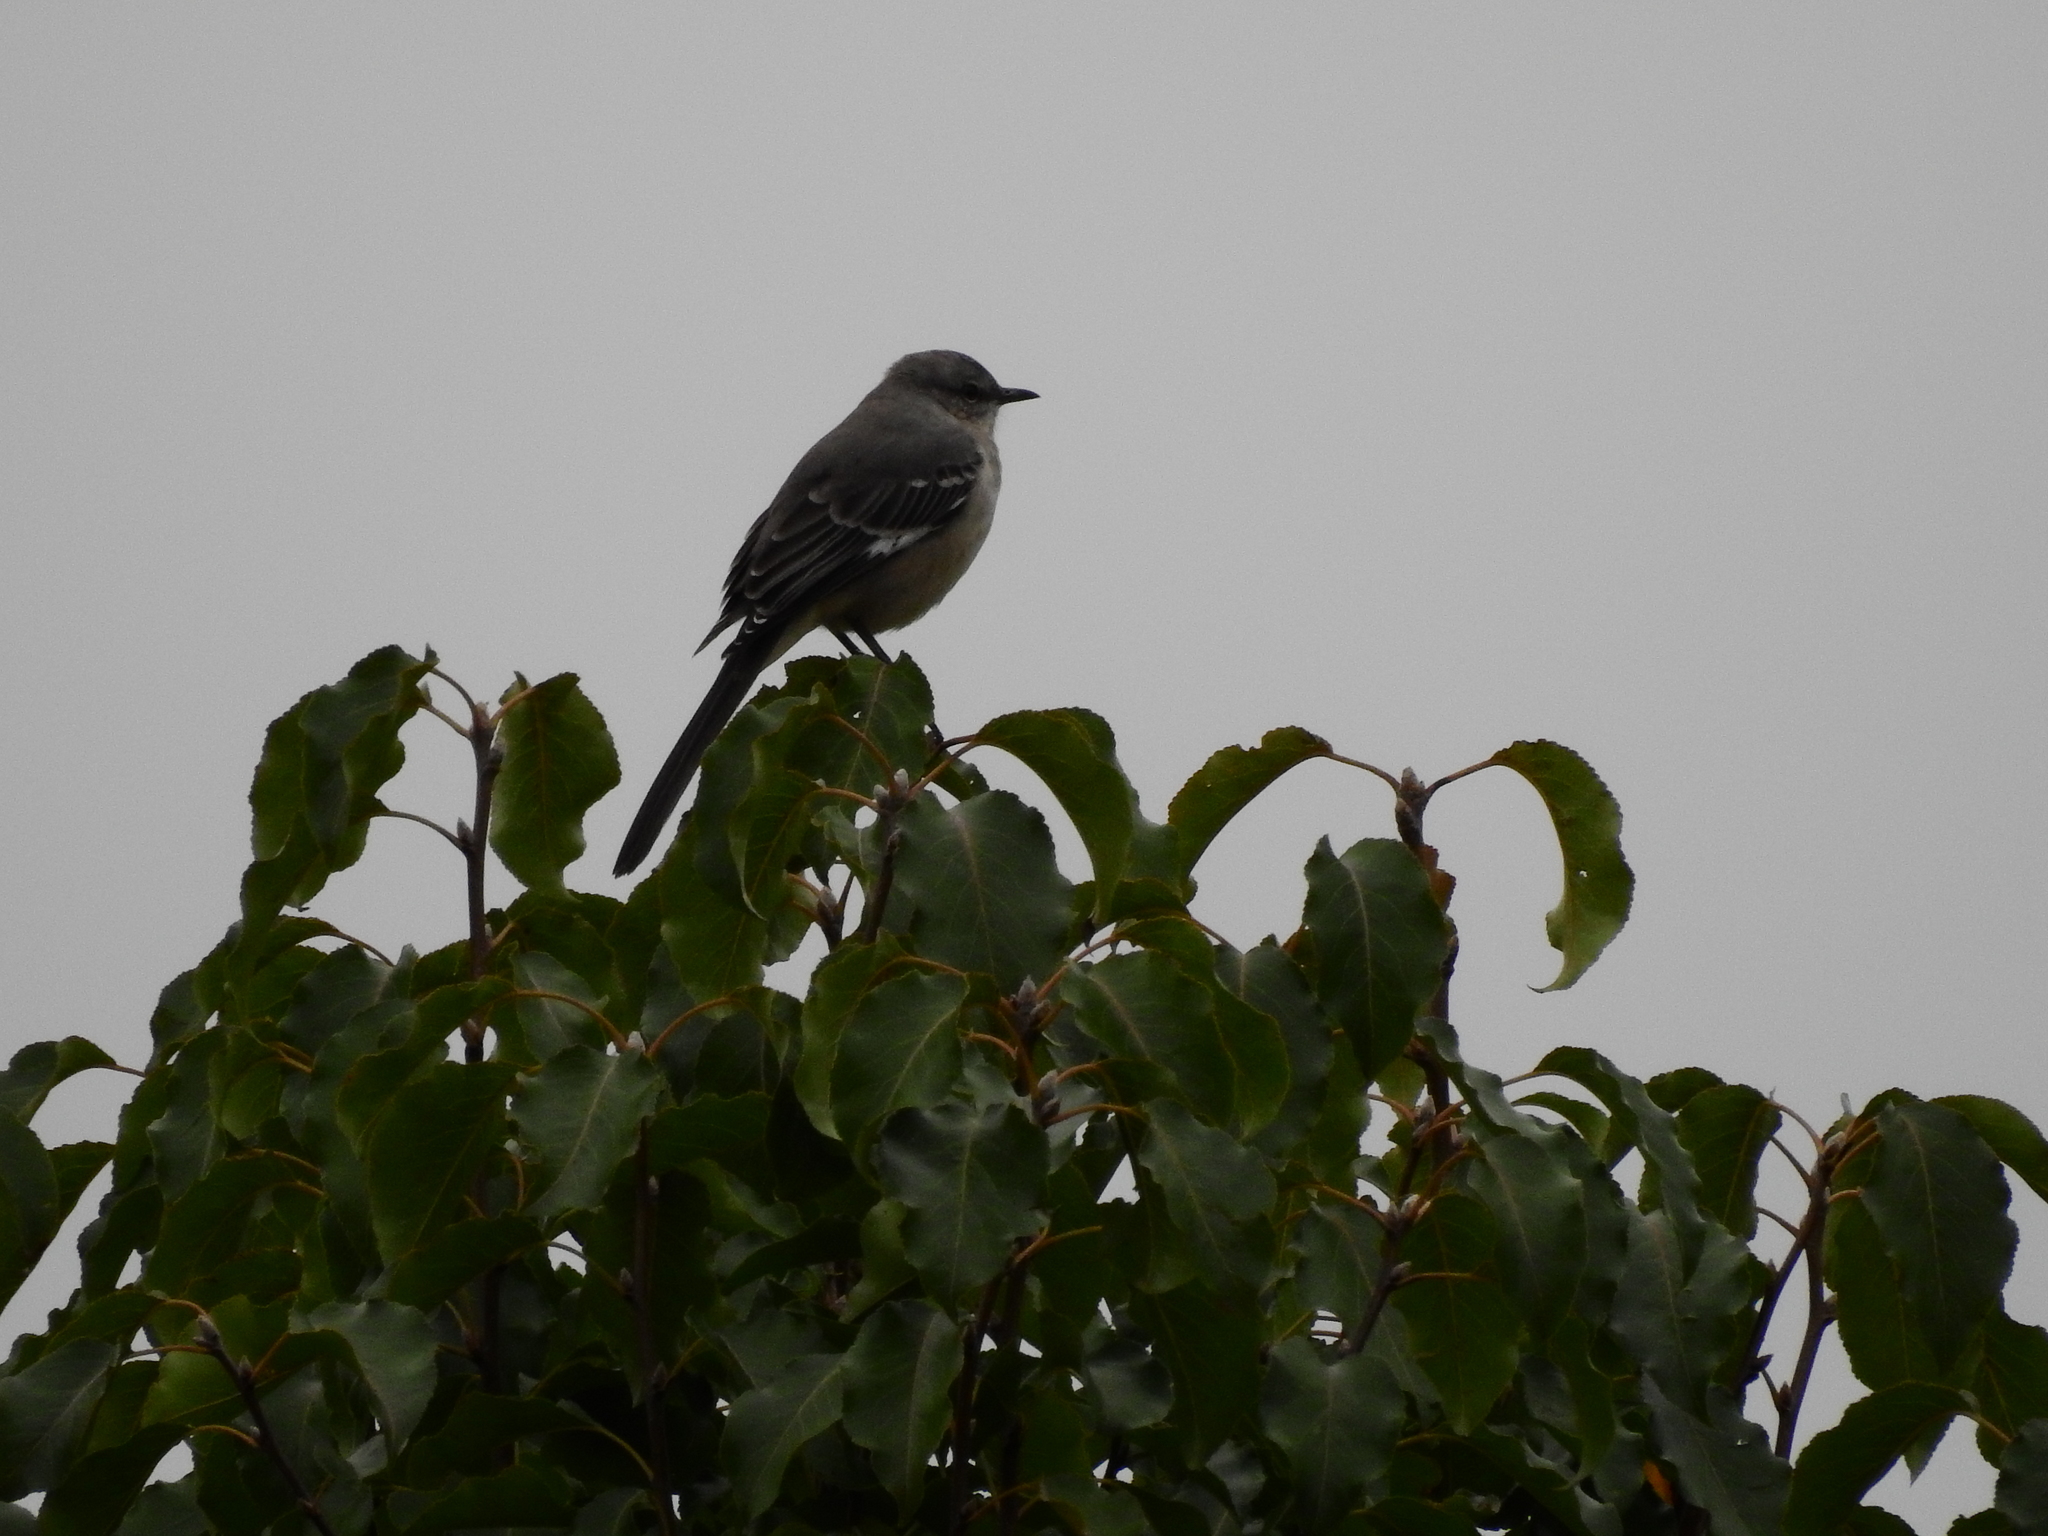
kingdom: Animalia
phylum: Chordata
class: Aves
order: Passeriformes
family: Mimidae
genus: Mimus
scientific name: Mimus polyglottos
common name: Northern mockingbird
